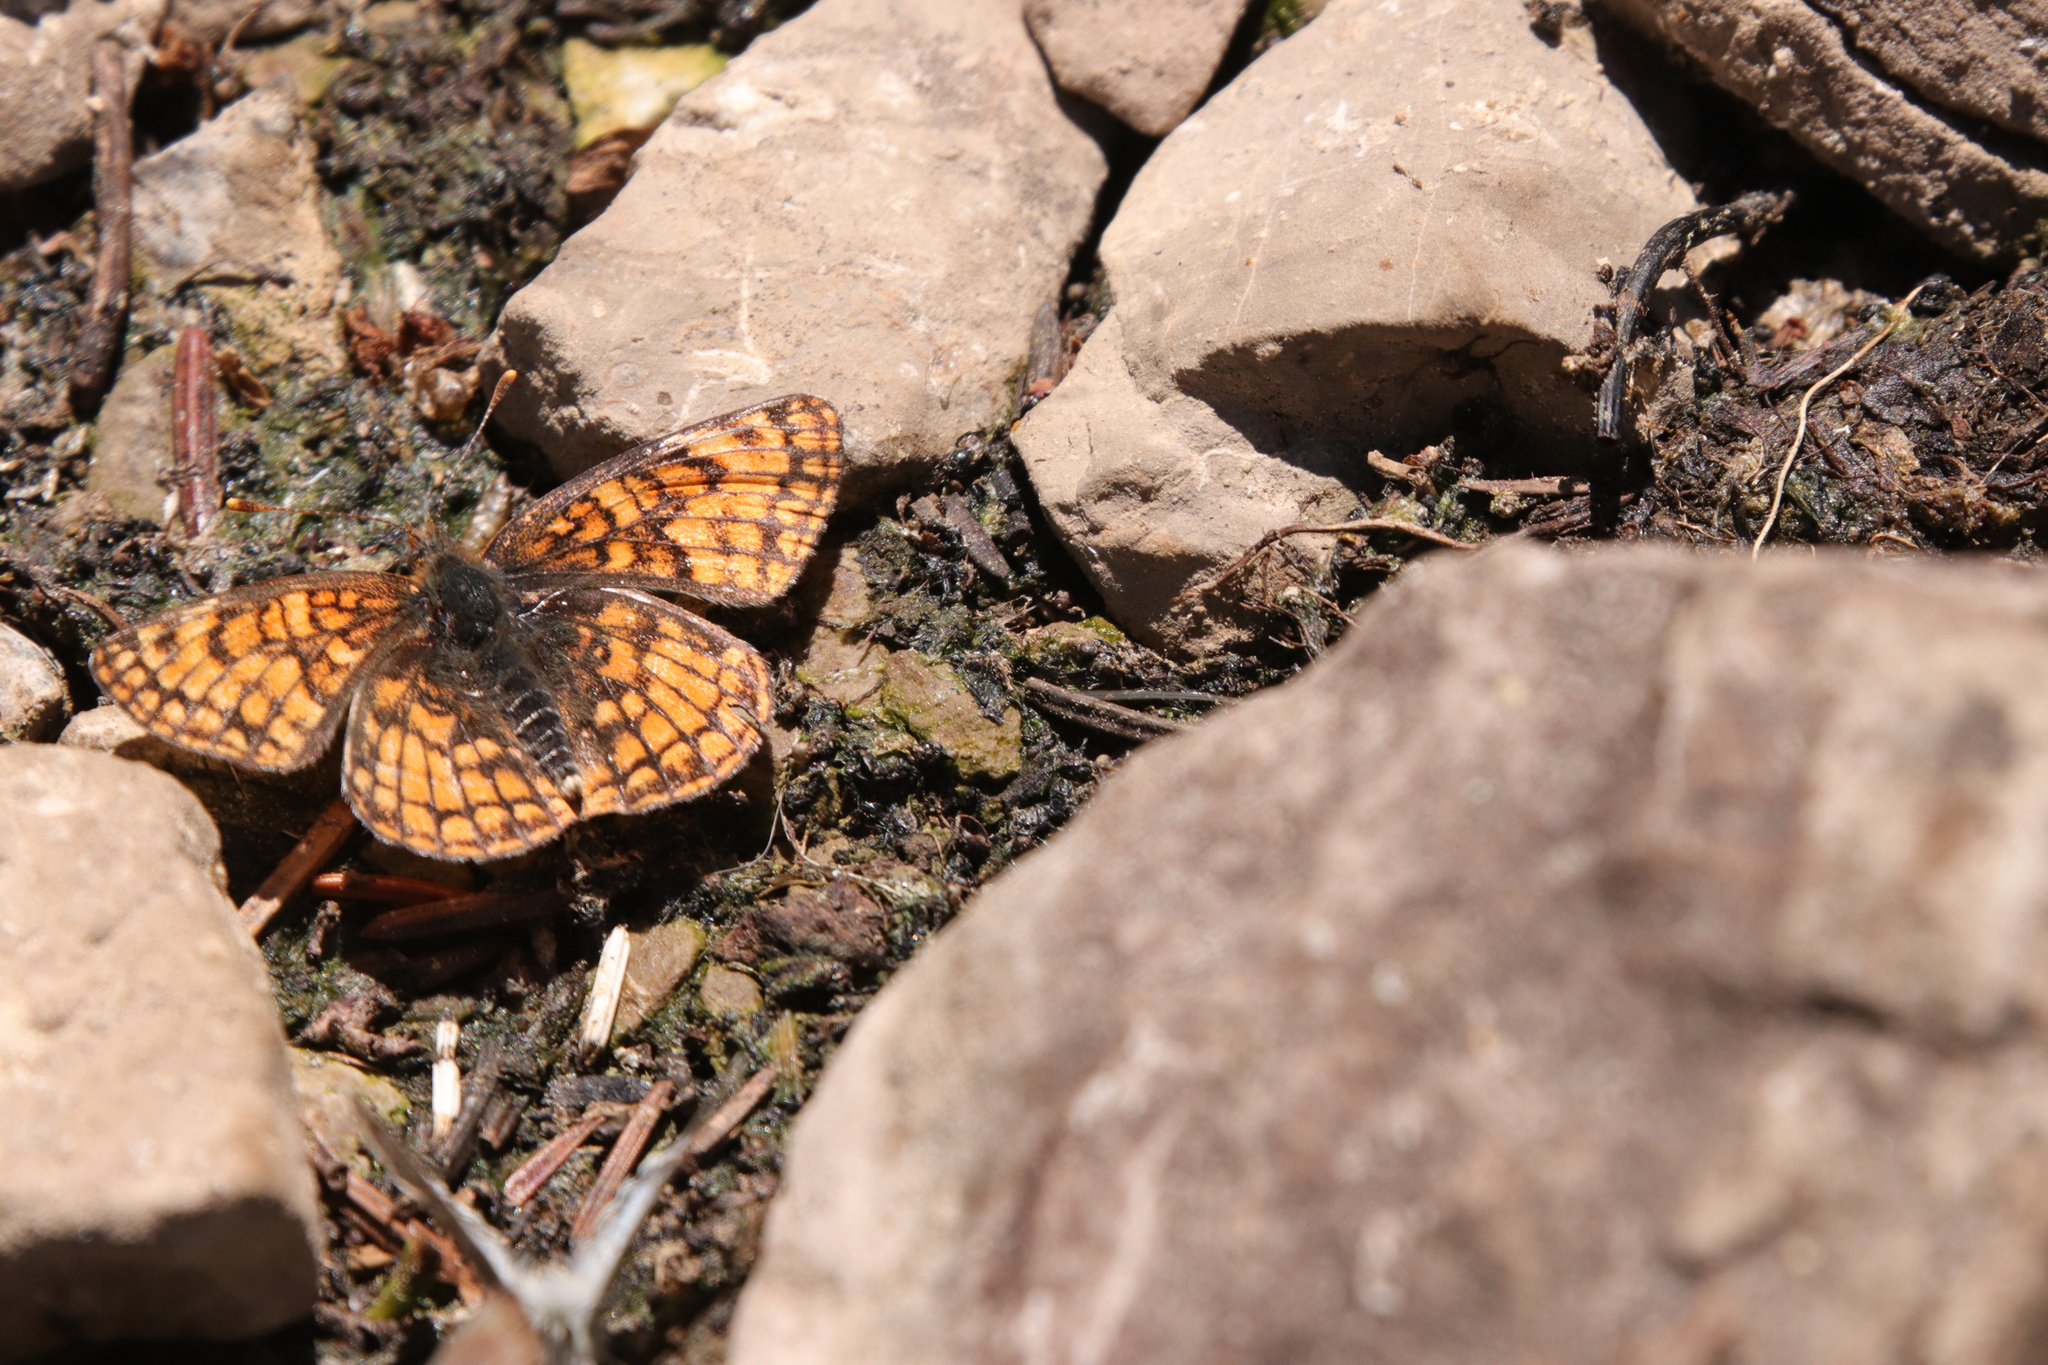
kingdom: Animalia
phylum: Arthropoda
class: Insecta
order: Lepidoptera
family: Nymphalidae
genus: Chlosyne
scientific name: Chlosyne damoetas
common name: Rockslide checkerspot
